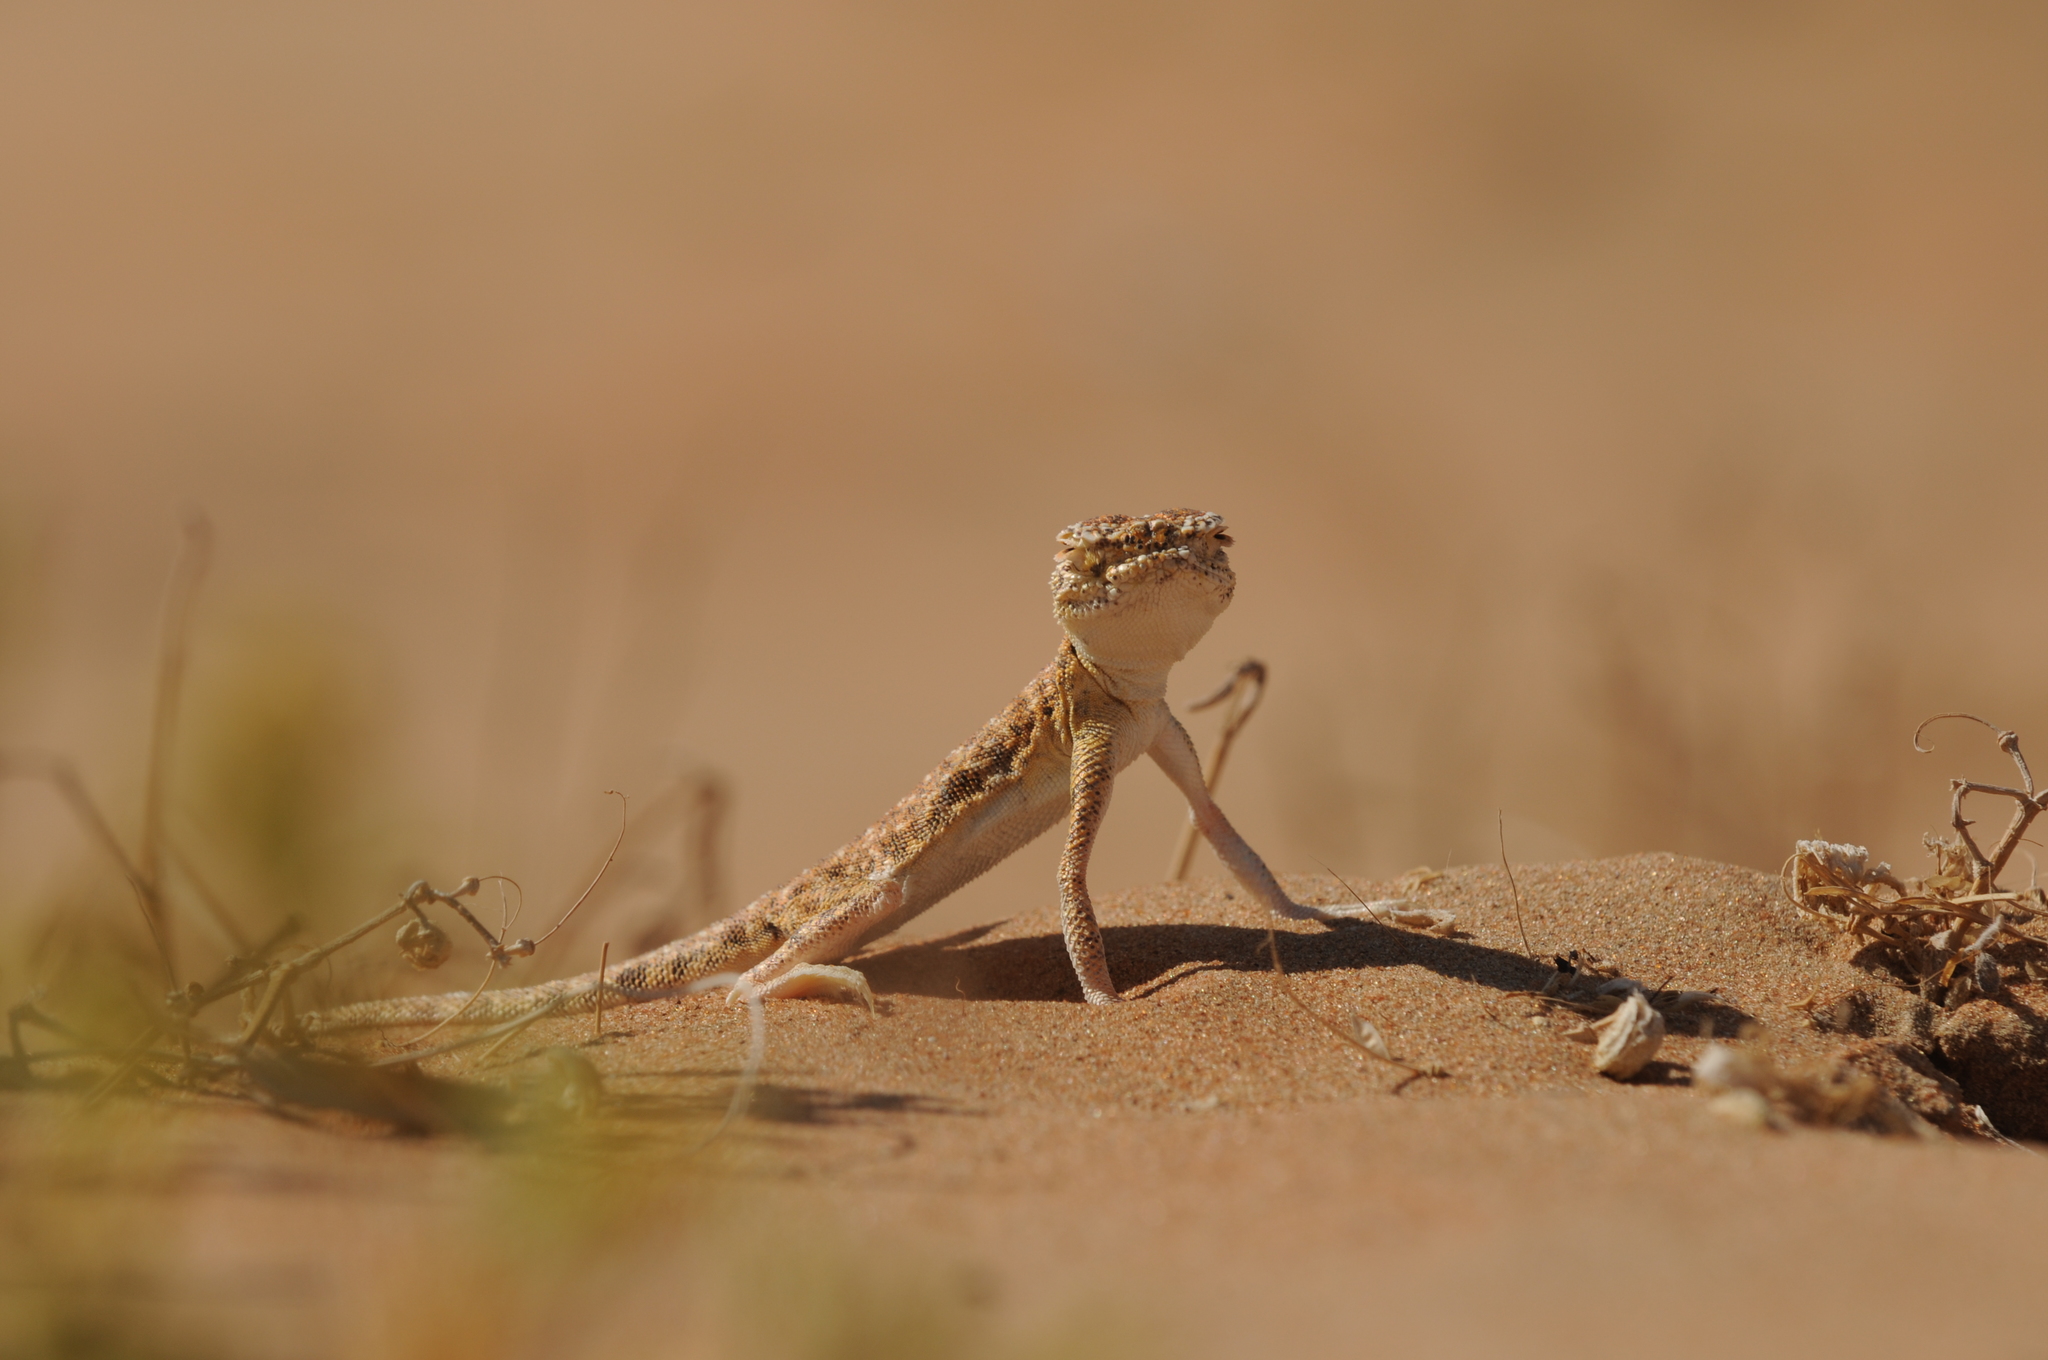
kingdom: Animalia
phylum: Chordata
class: Squamata
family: Agamidae
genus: Phrynocephalus
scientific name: Phrynocephalus arabicus
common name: Arabian toad-headed agama
